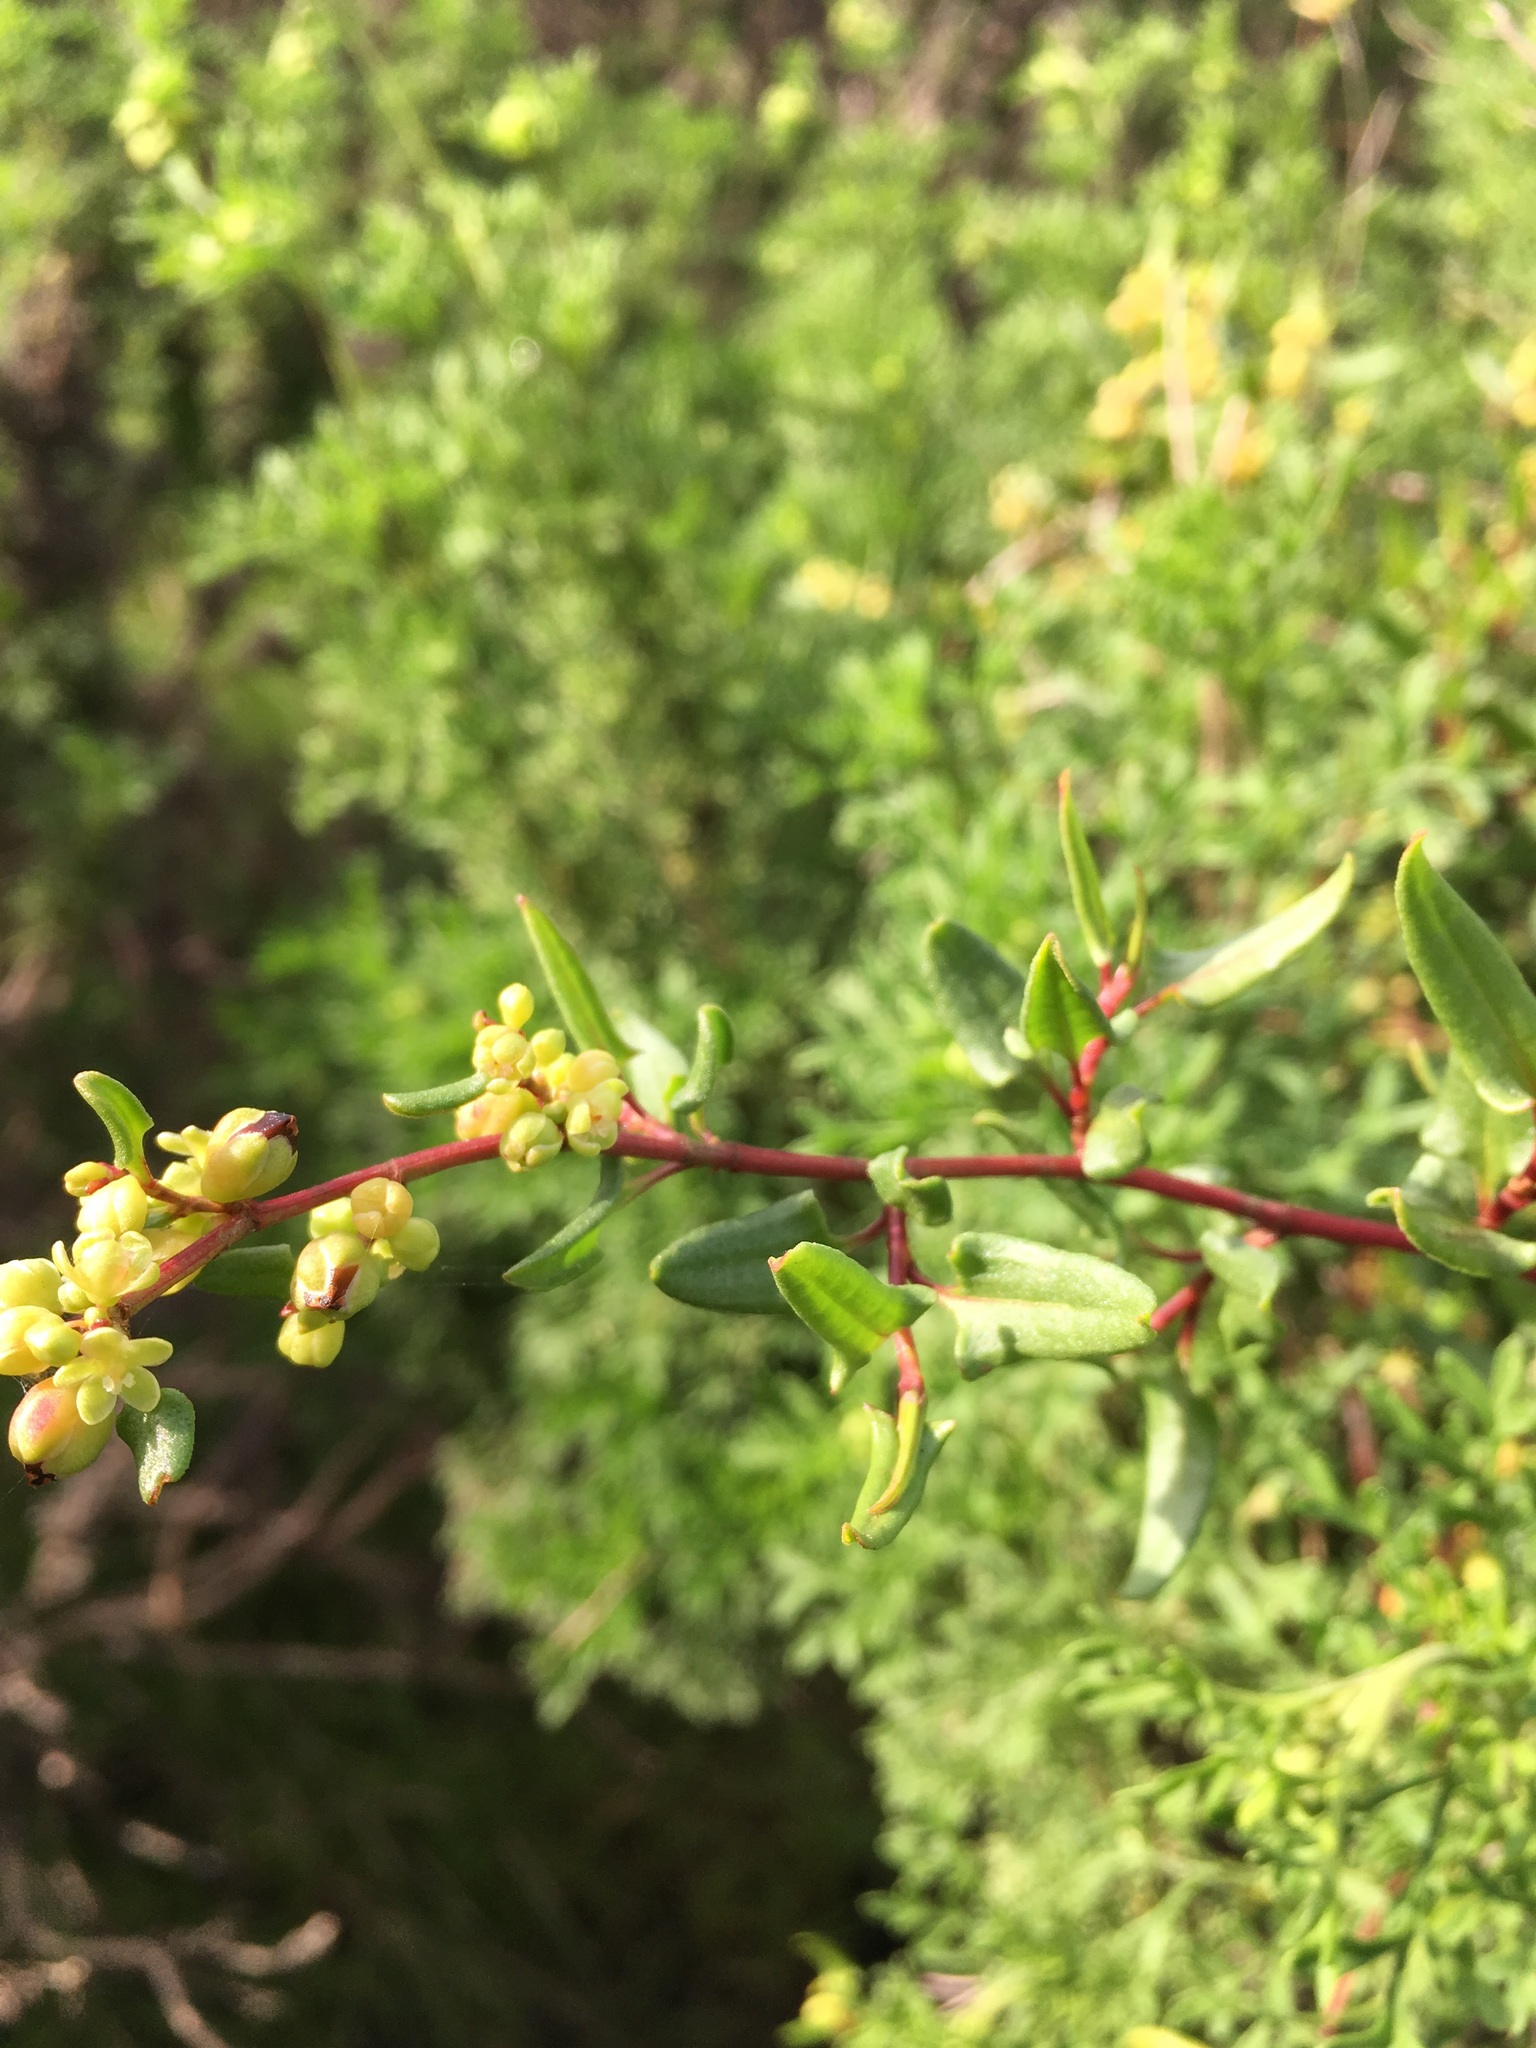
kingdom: Plantae
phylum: Tracheophyta
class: Magnoliopsida
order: Caryophyllales
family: Polygonaceae
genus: Muehlenbeckia
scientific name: Muehlenbeckia hastulata
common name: Wirevine
